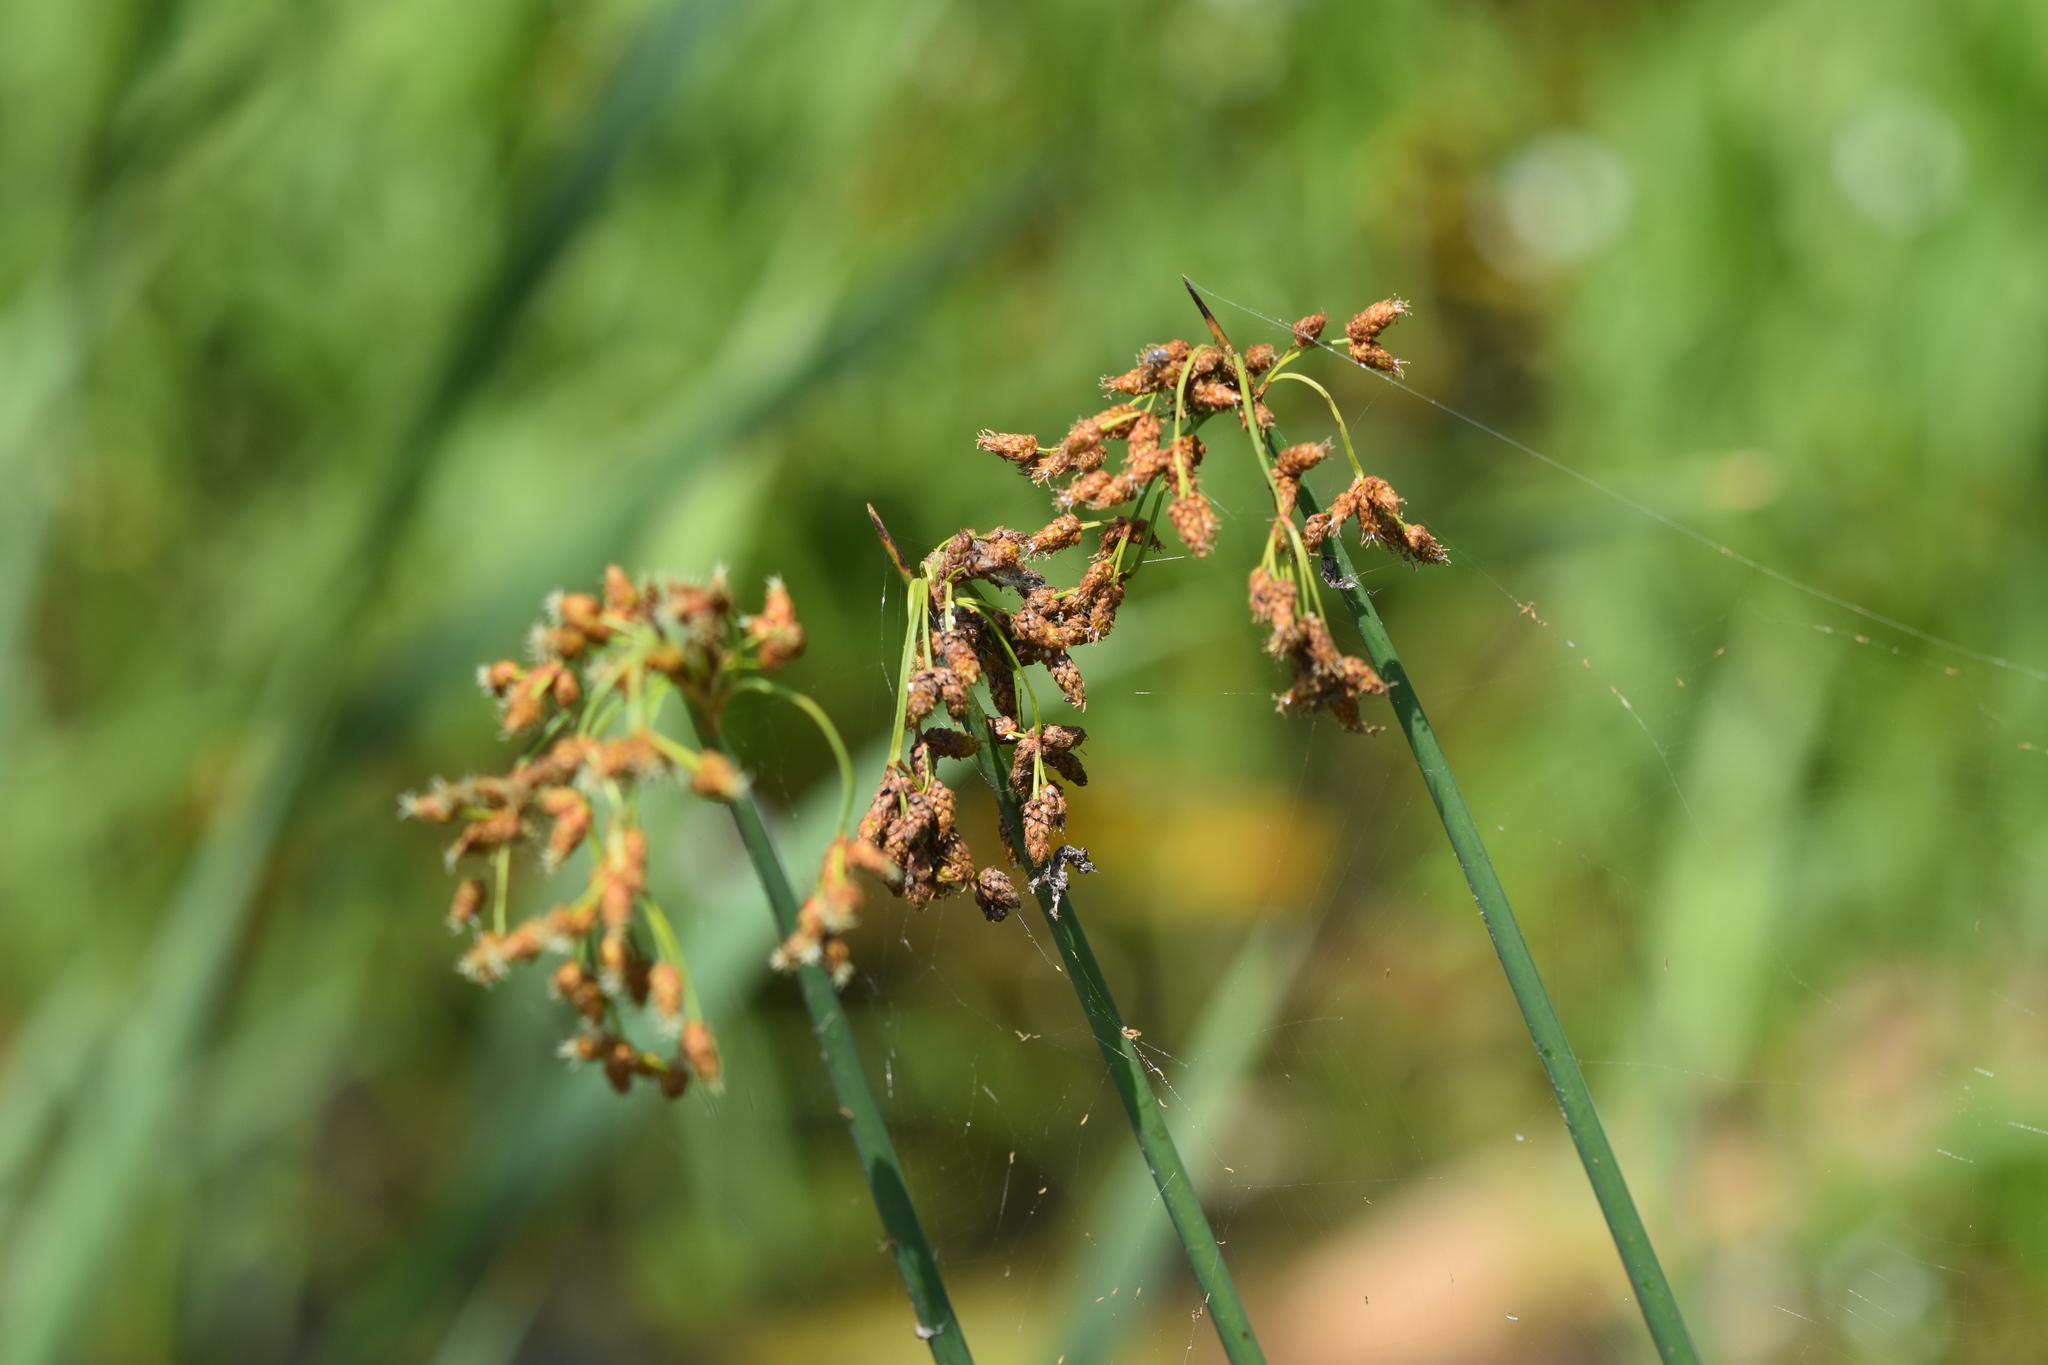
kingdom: Plantae
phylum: Tracheophyta
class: Liliopsida
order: Poales
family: Cyperaceae
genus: Schoenoplectus
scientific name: Schoenoplectus tabernaemontani
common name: Grey club-rush
